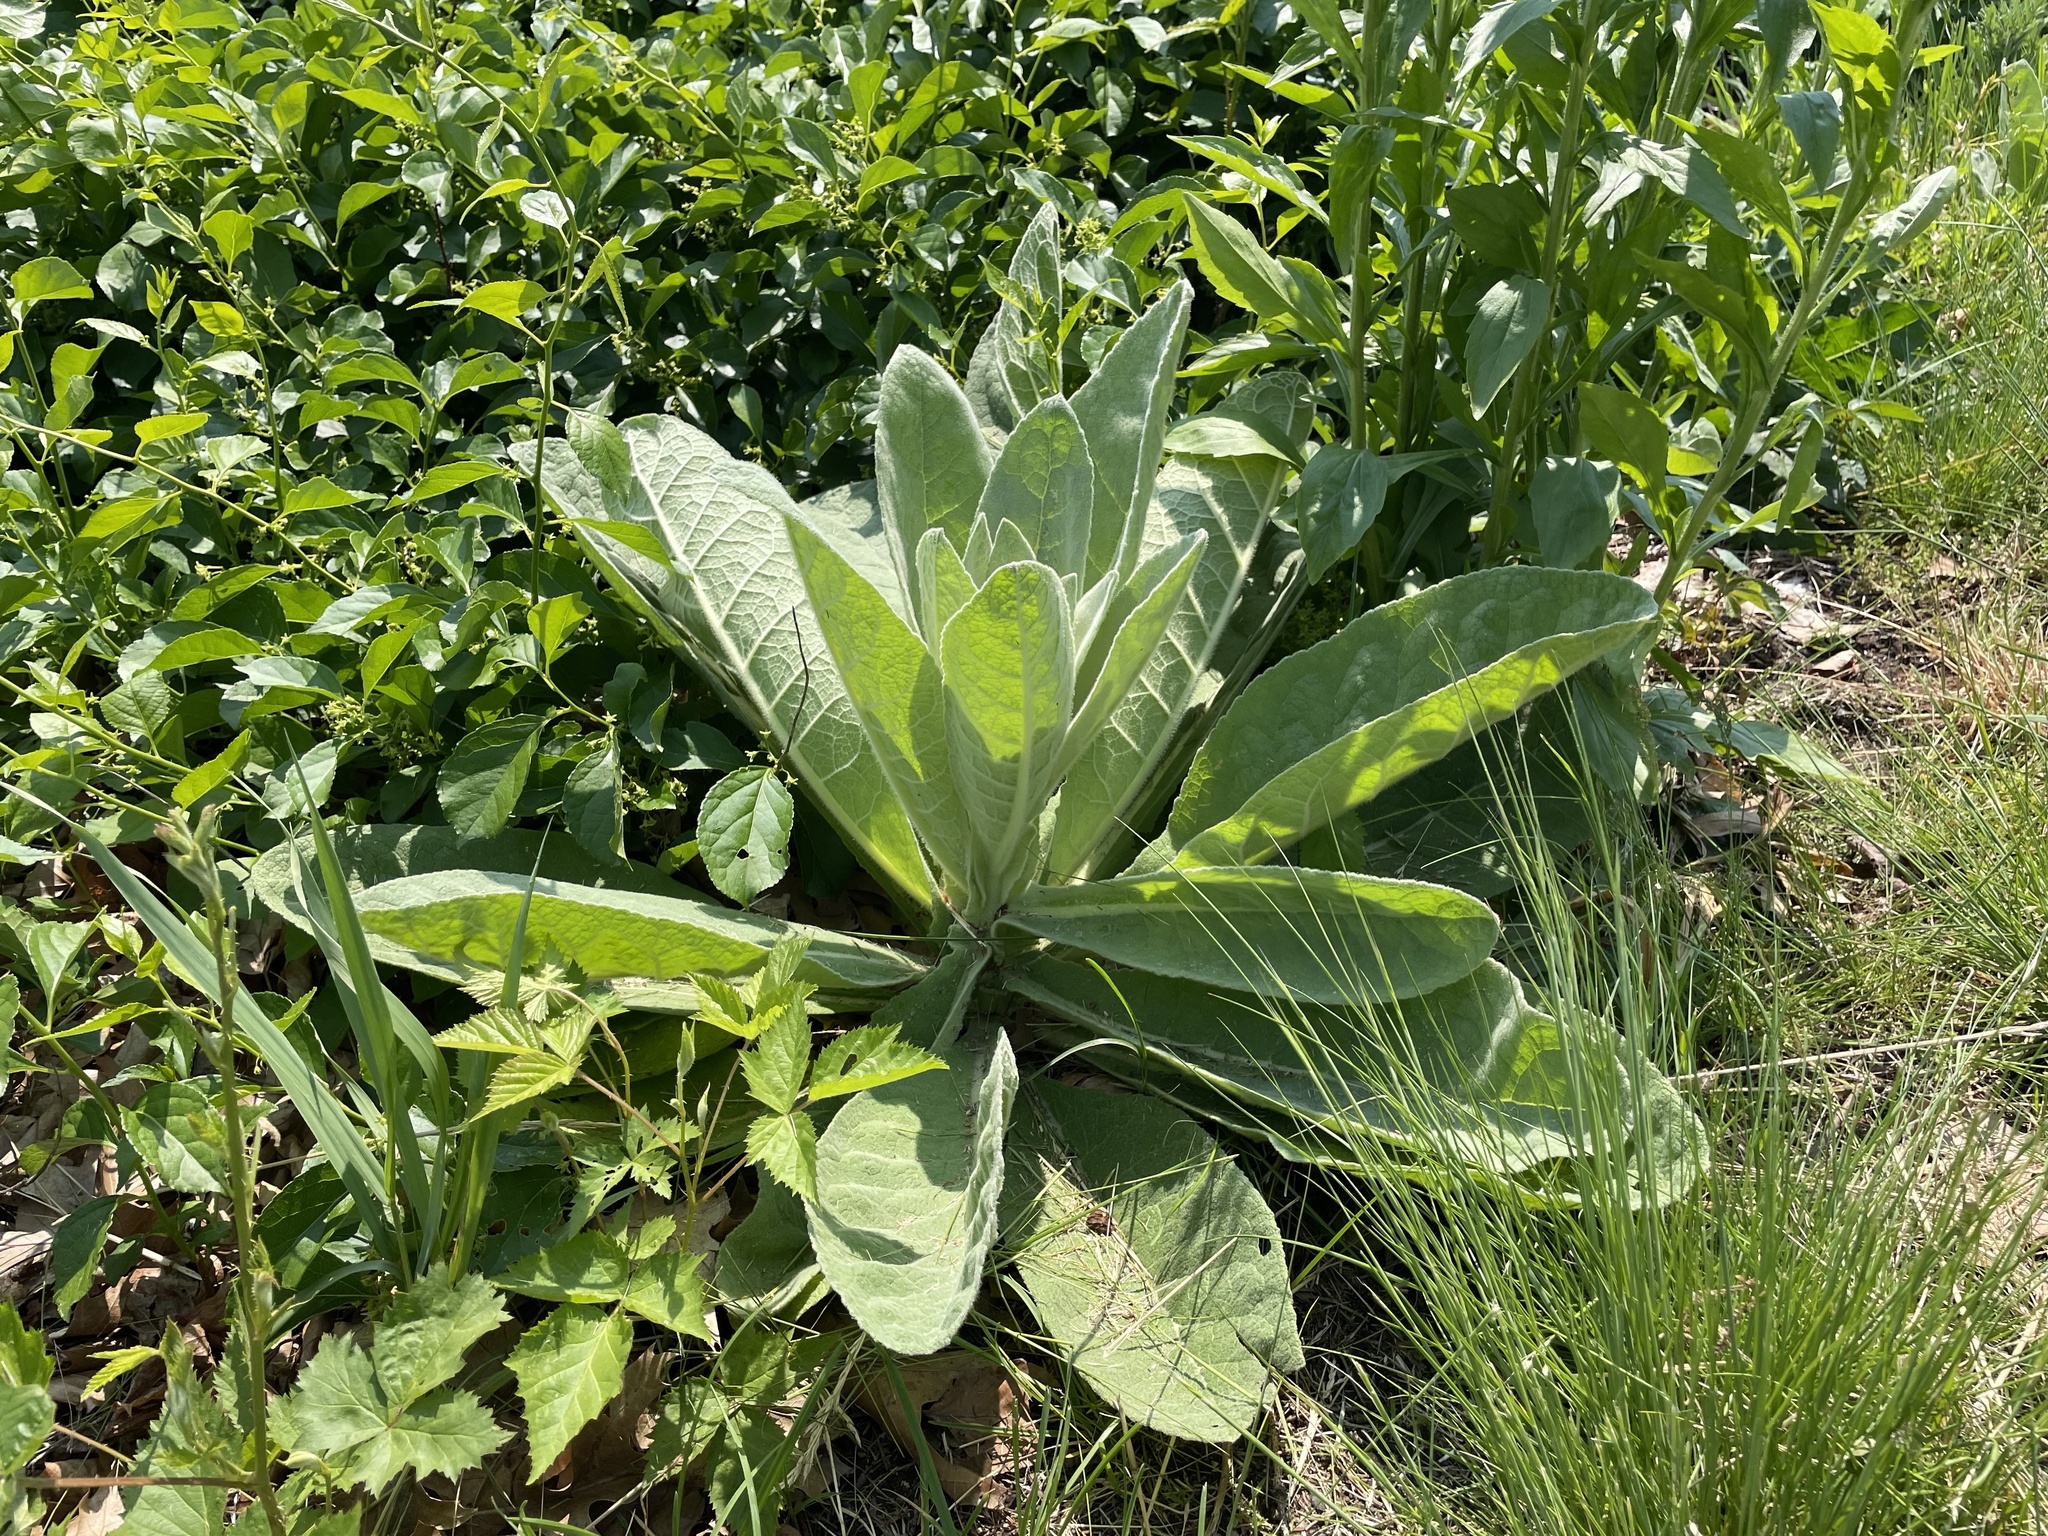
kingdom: Plantae
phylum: Tracheophyta
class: Magnoliopsida
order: Lamiales
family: Scrophulariaceae
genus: Verbascum
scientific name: Verbascum thapsus
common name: Common mullein
